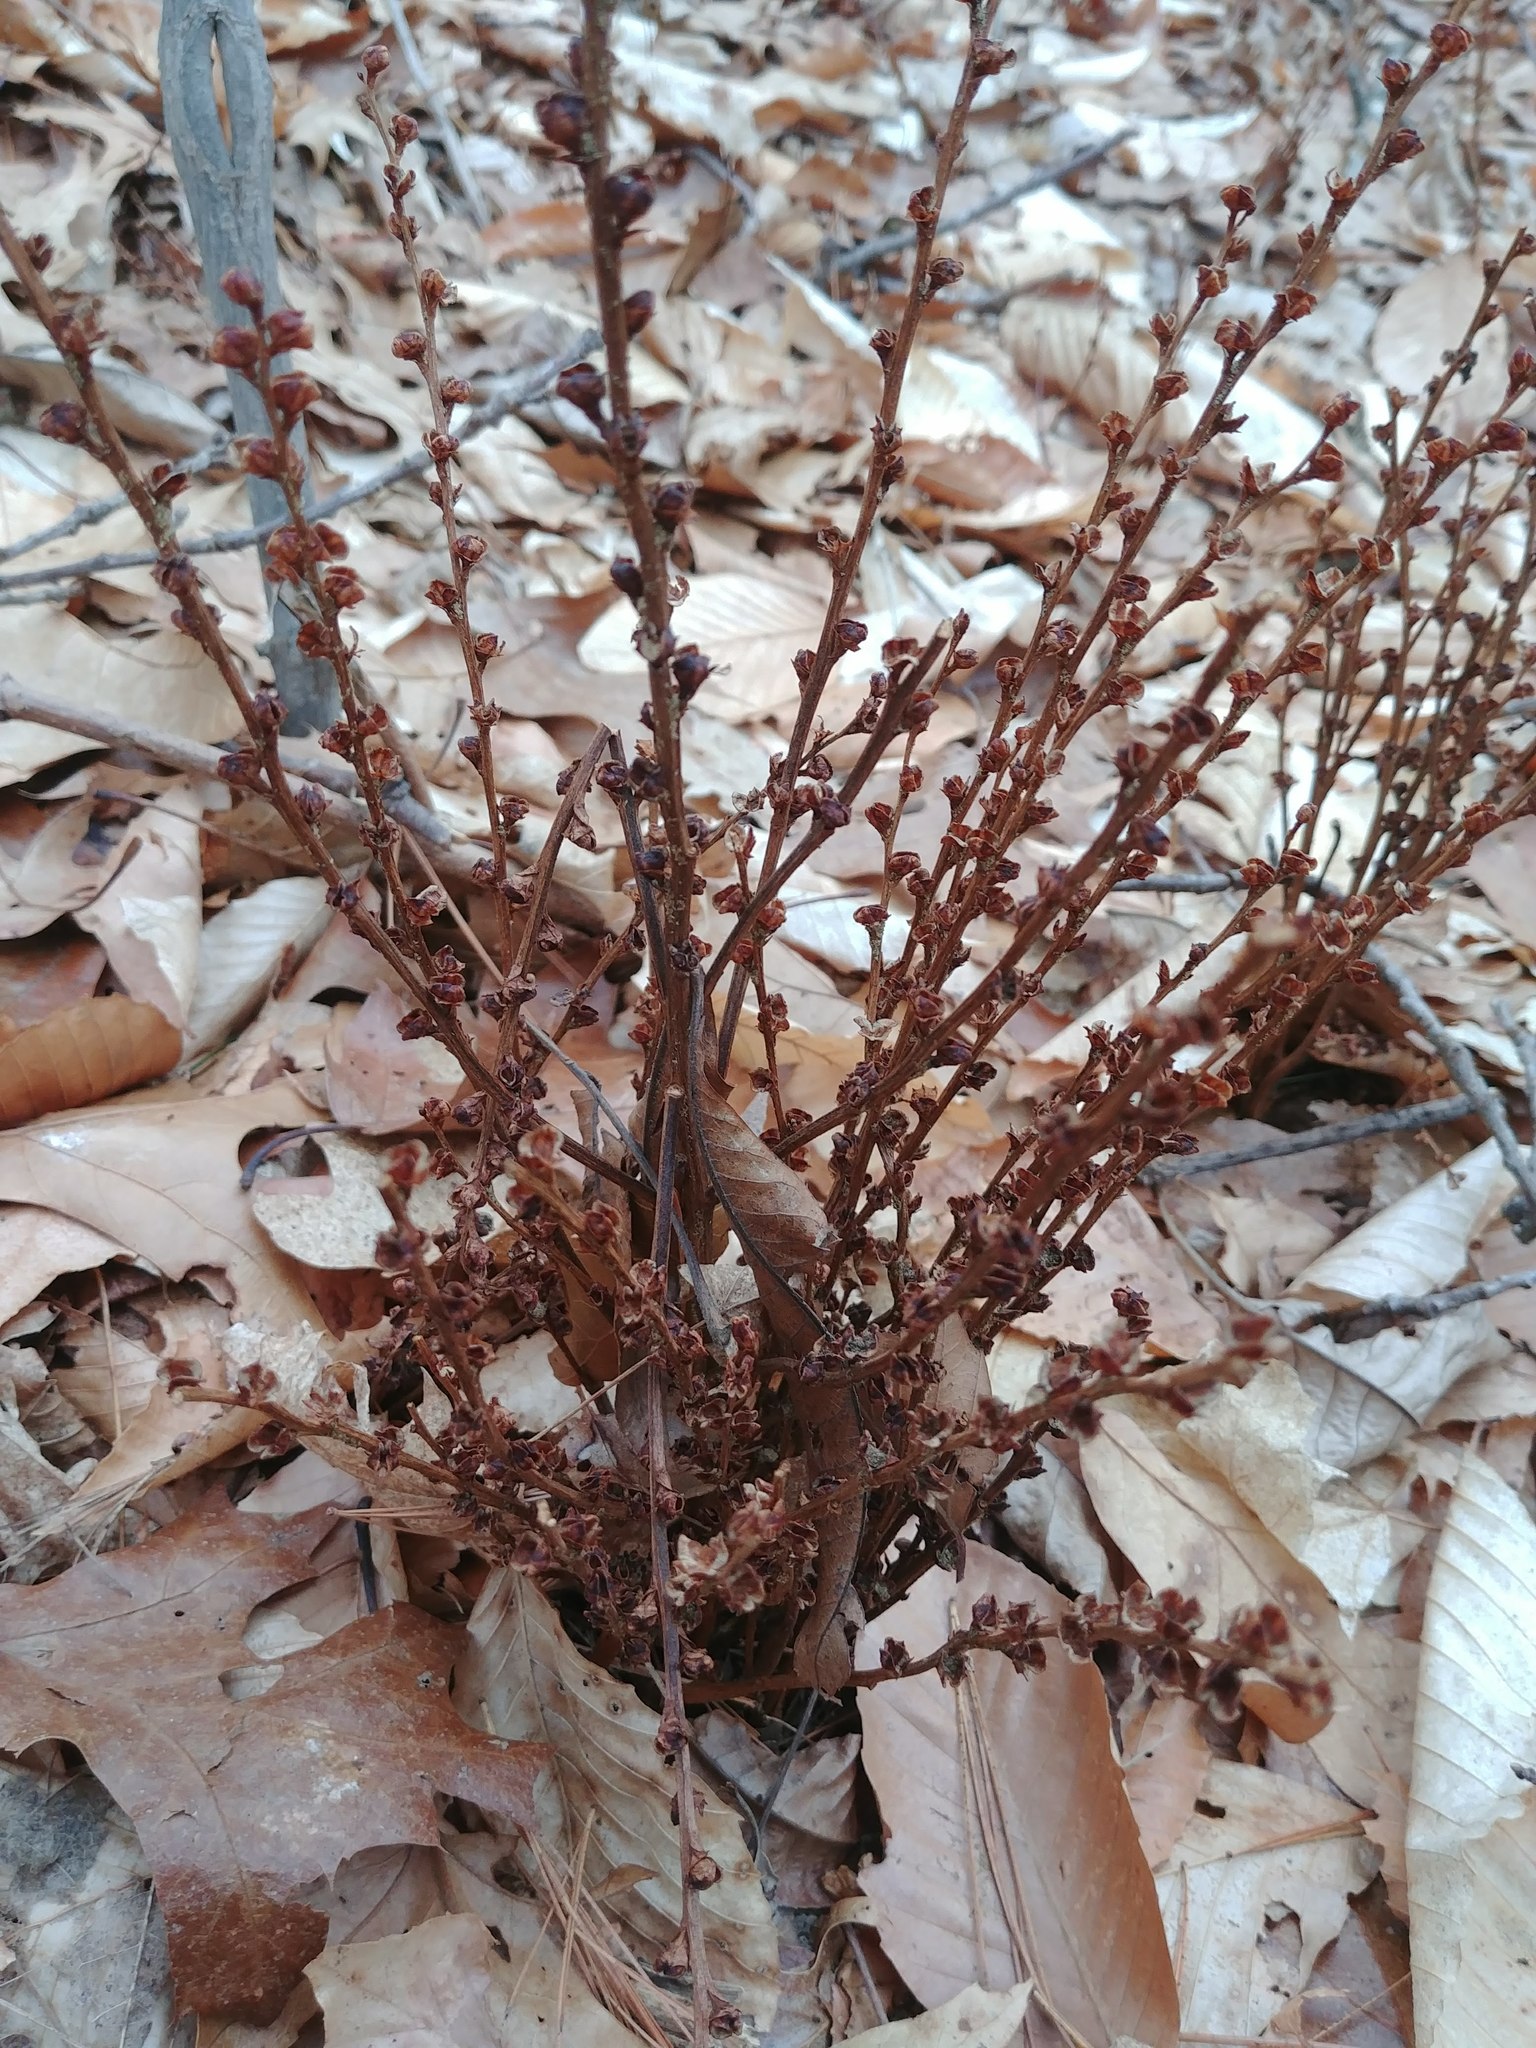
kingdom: Plantae
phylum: Tracheophyta
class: Magnoliopsida
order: Lamiales
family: Orobanchaceae
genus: Epifagus
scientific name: Epifagus virginiana
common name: Beechdrops
